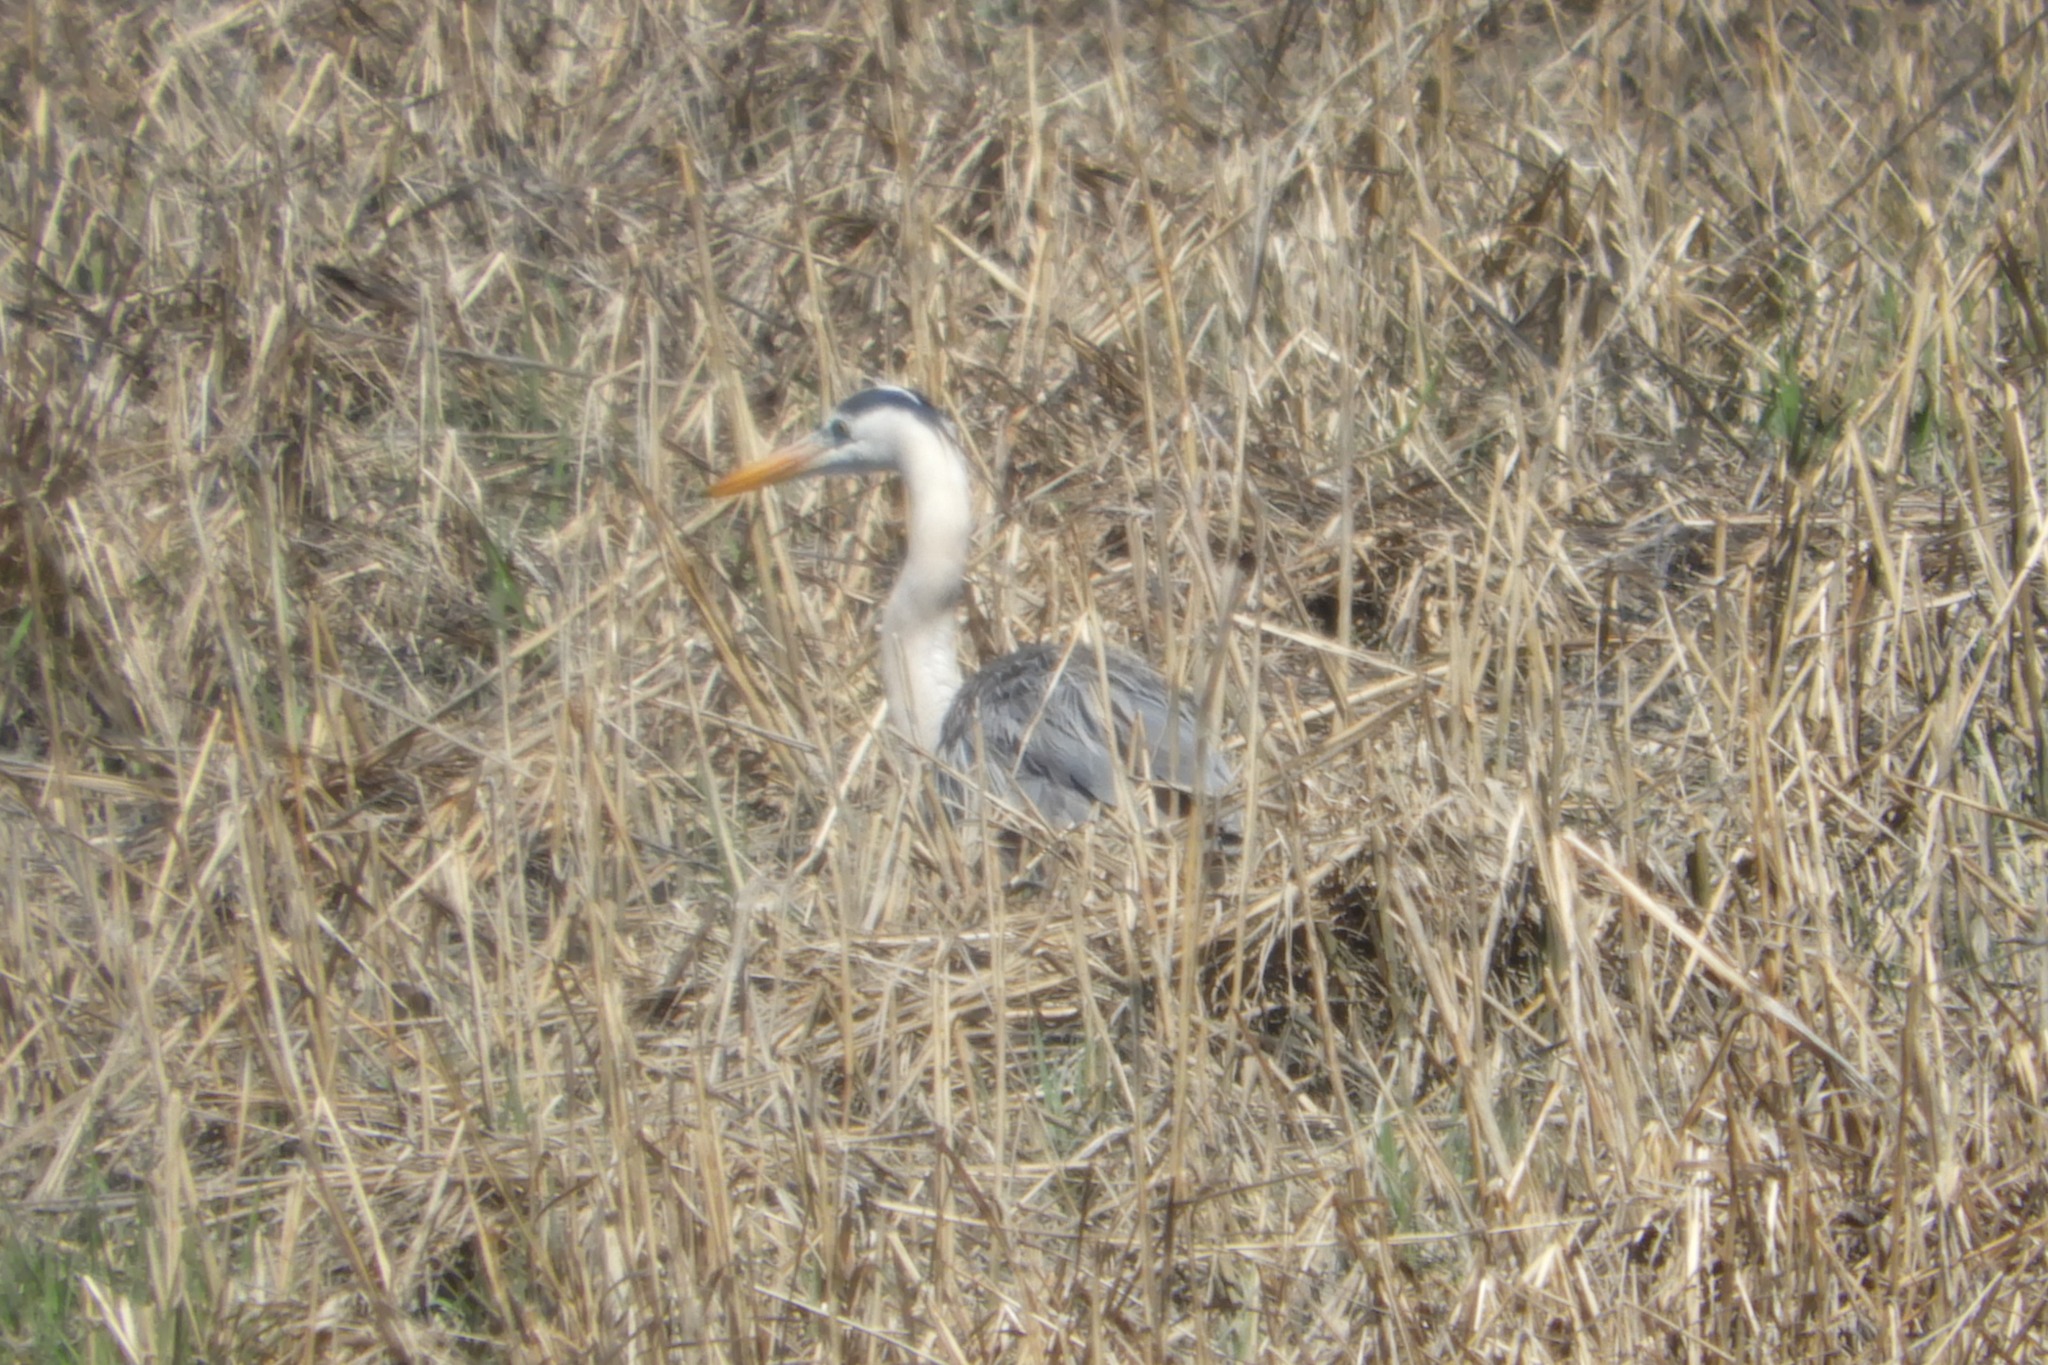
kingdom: Animalia
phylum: Chordata
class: Aves
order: Pelecaniformes
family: Ardeidae
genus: Ardea
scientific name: Ardea herodias
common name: Great blue heron
